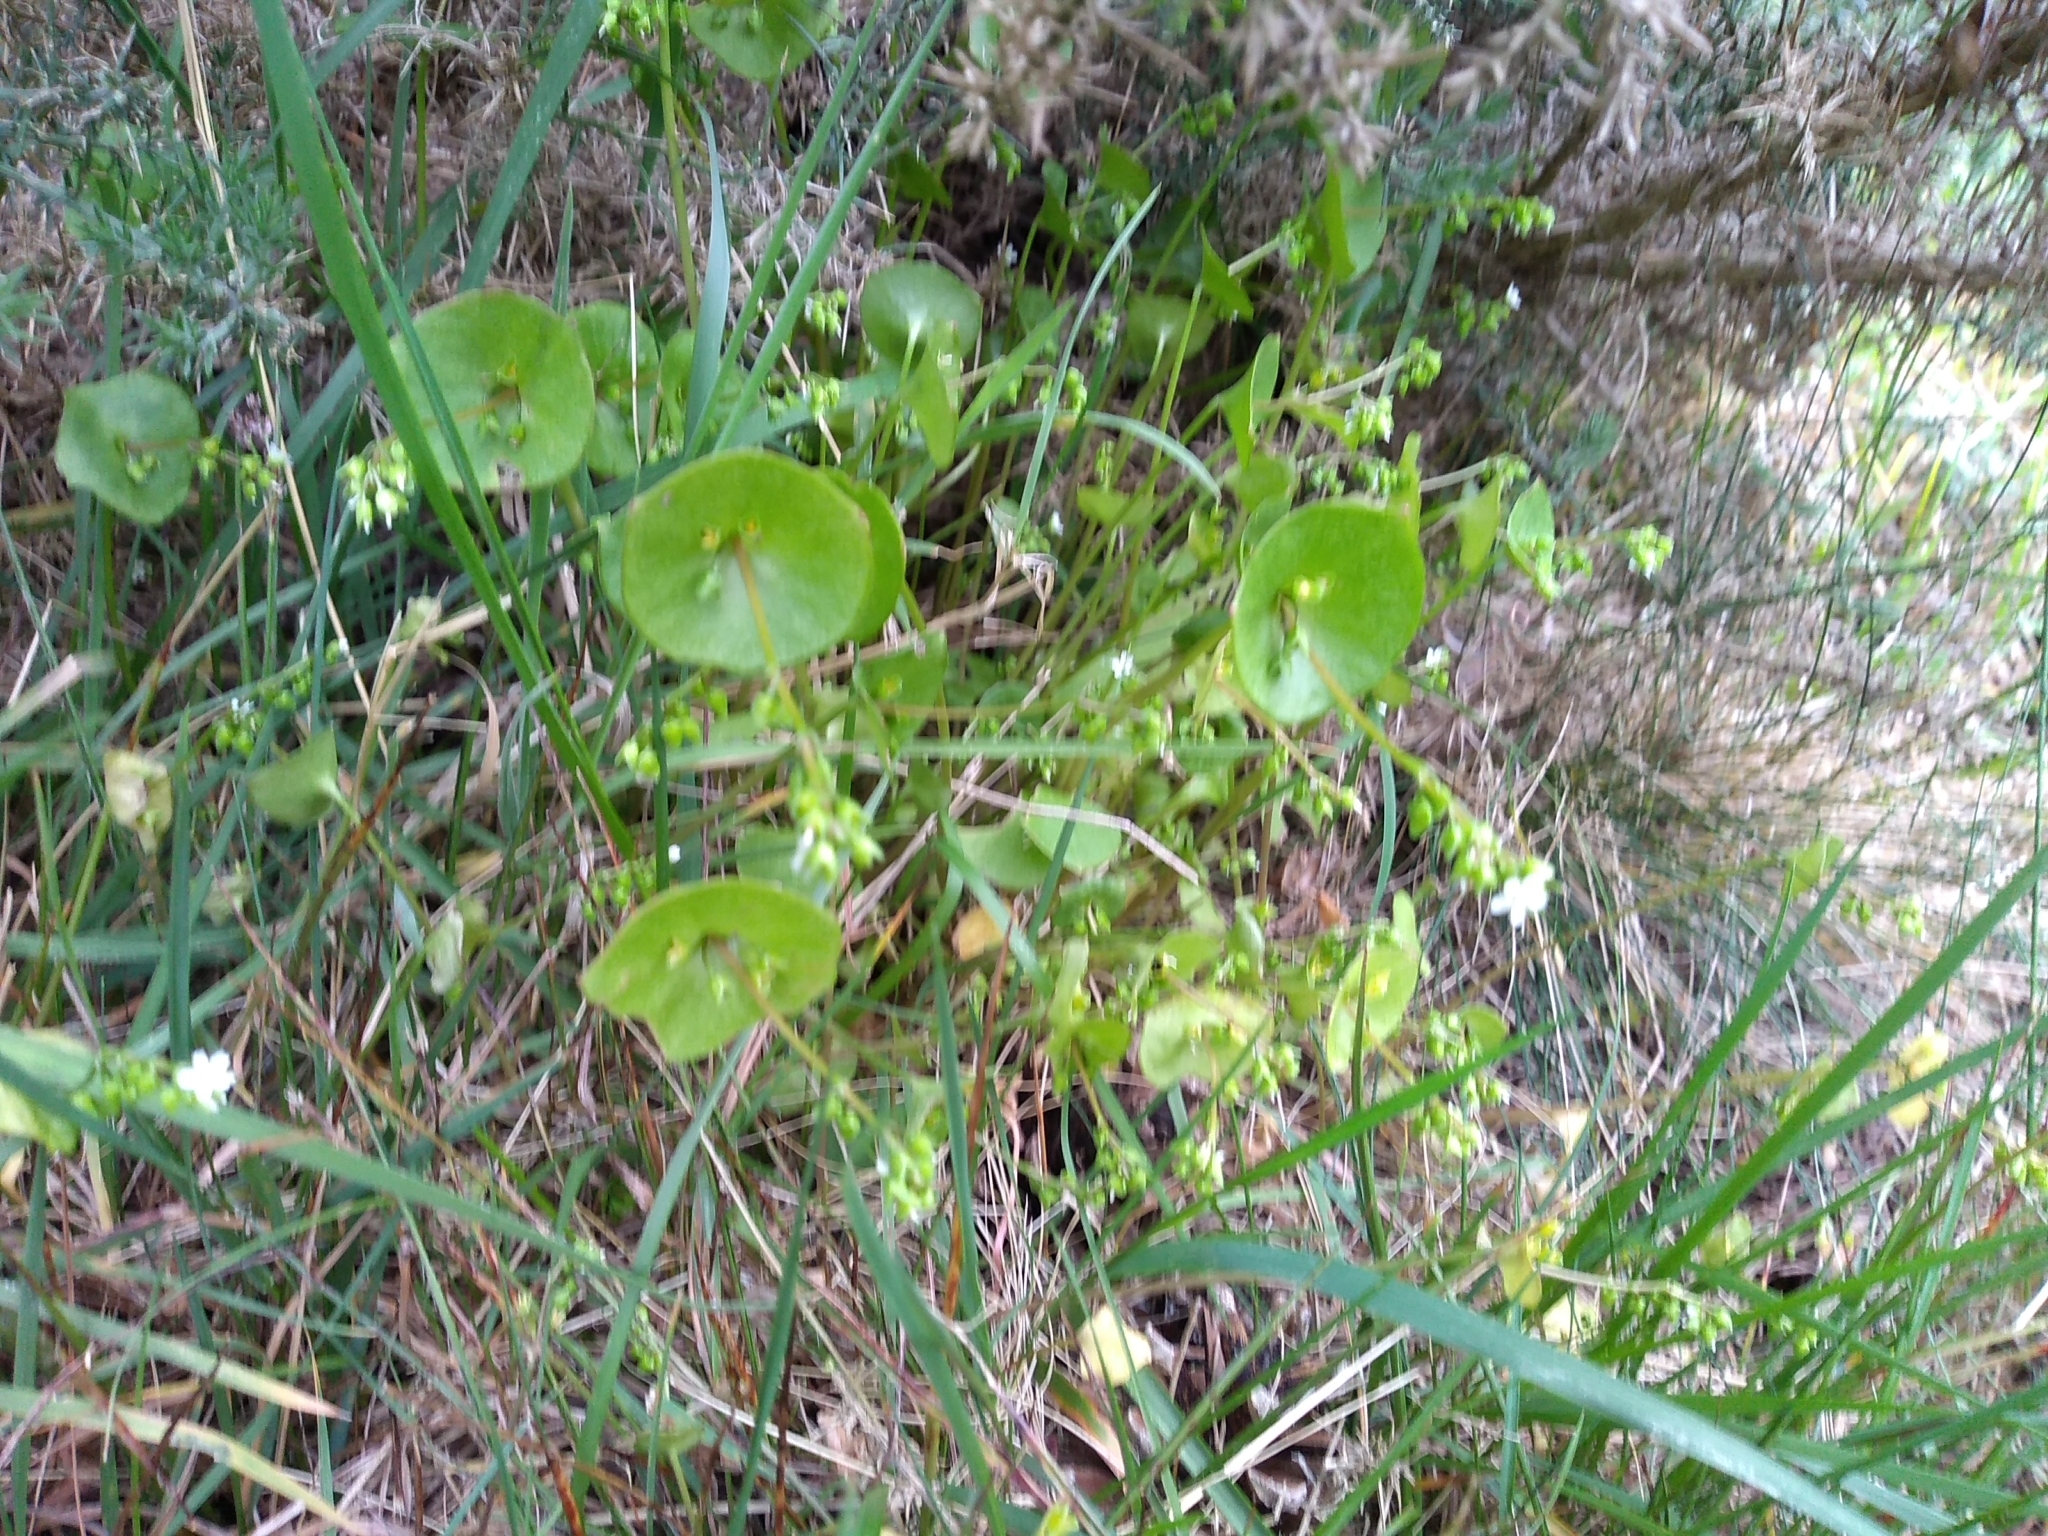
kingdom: Plantae
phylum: Tracheophyta
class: Magnoliopsida
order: Caryophyllales
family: Montiaceae
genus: Claytonia
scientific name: Claytonia perfoliata
